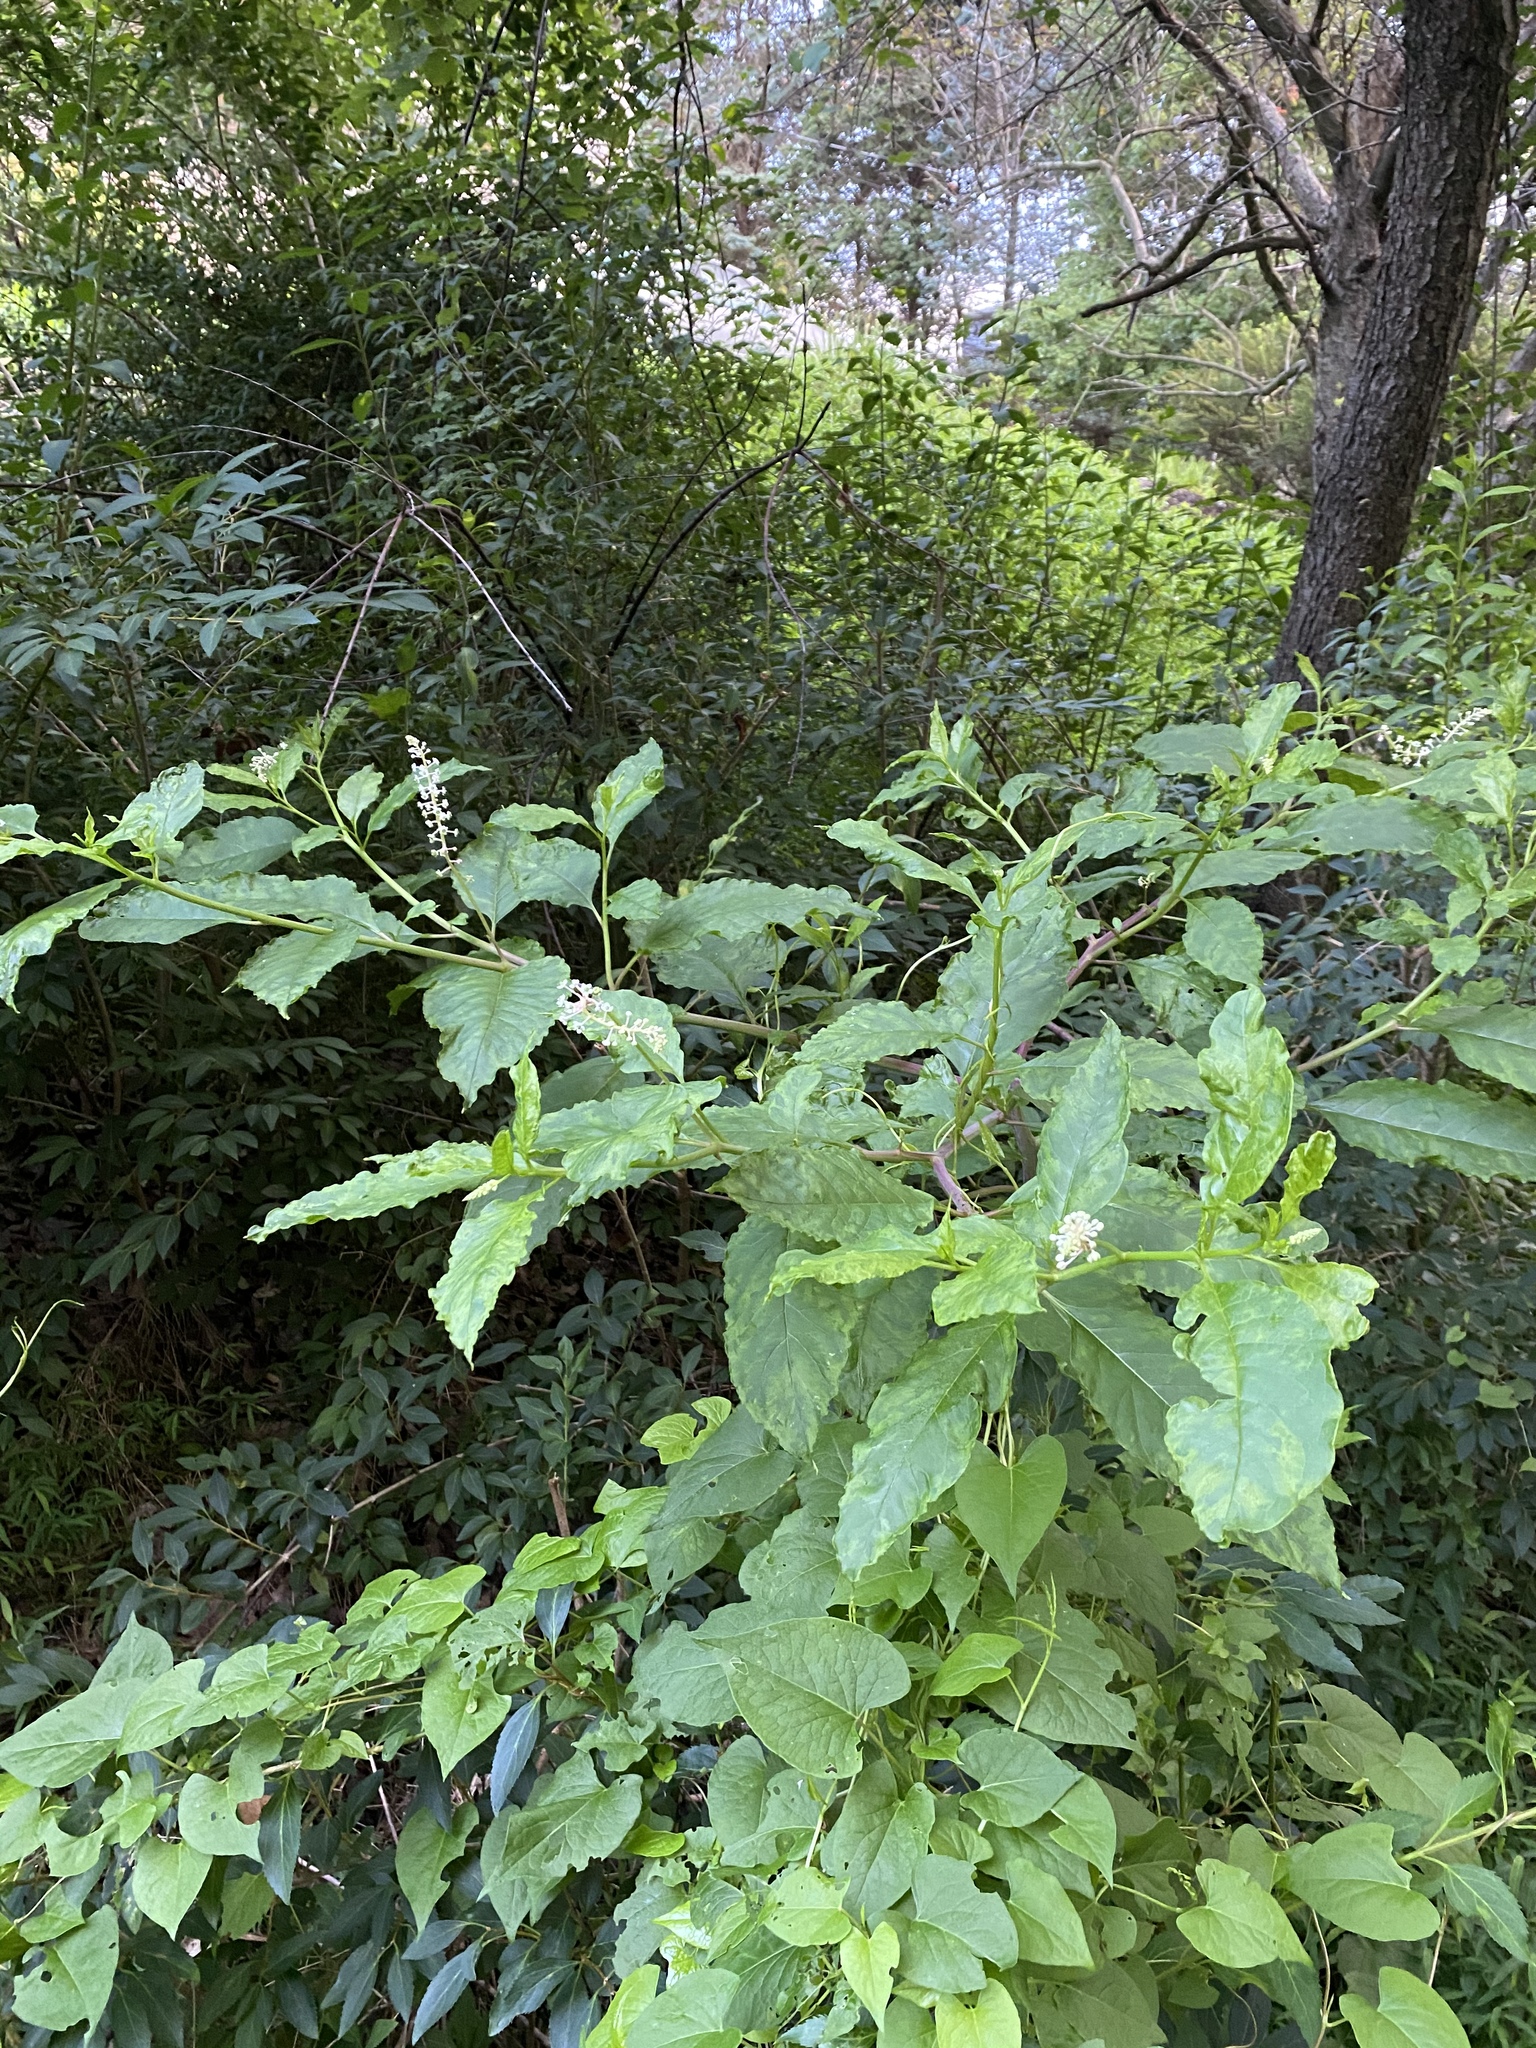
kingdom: Plantae
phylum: Tracheophyta
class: Magnoliopsida
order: Caryophyllales
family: Phytolaccaceae
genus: Phytolacca
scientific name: Phytolacca americana
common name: American pokeweed
